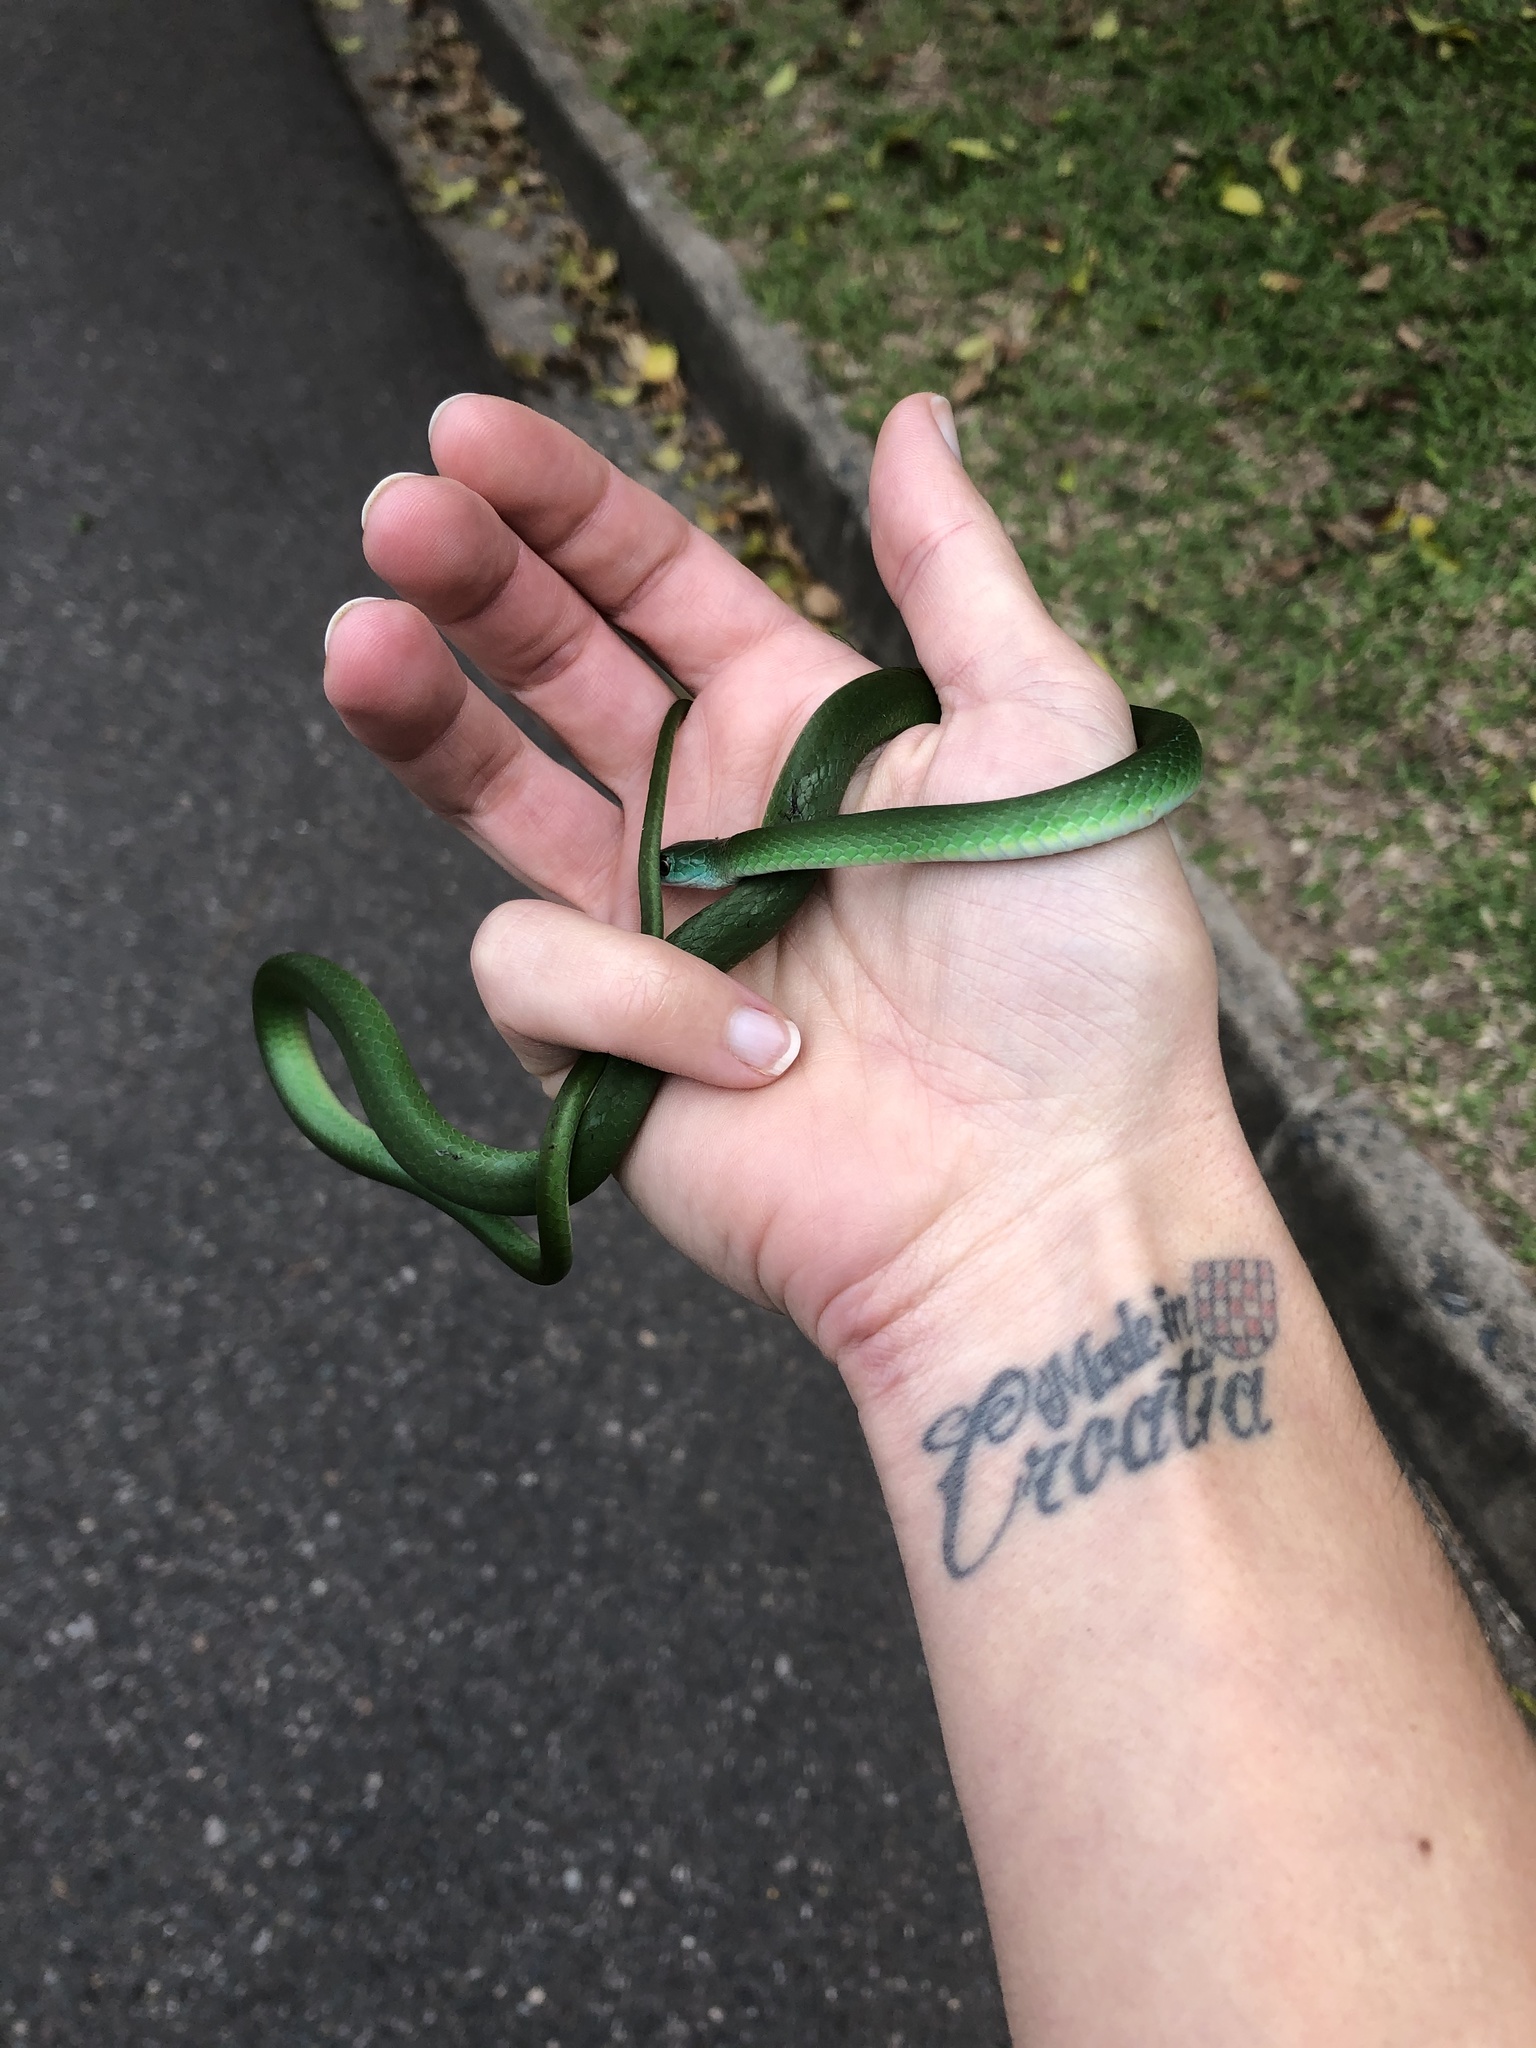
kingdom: Animalia
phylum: Chordata
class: Squamata
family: Colubridae
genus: Philothamnus
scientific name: Philothamnus hoplogaster
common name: Green water snake
